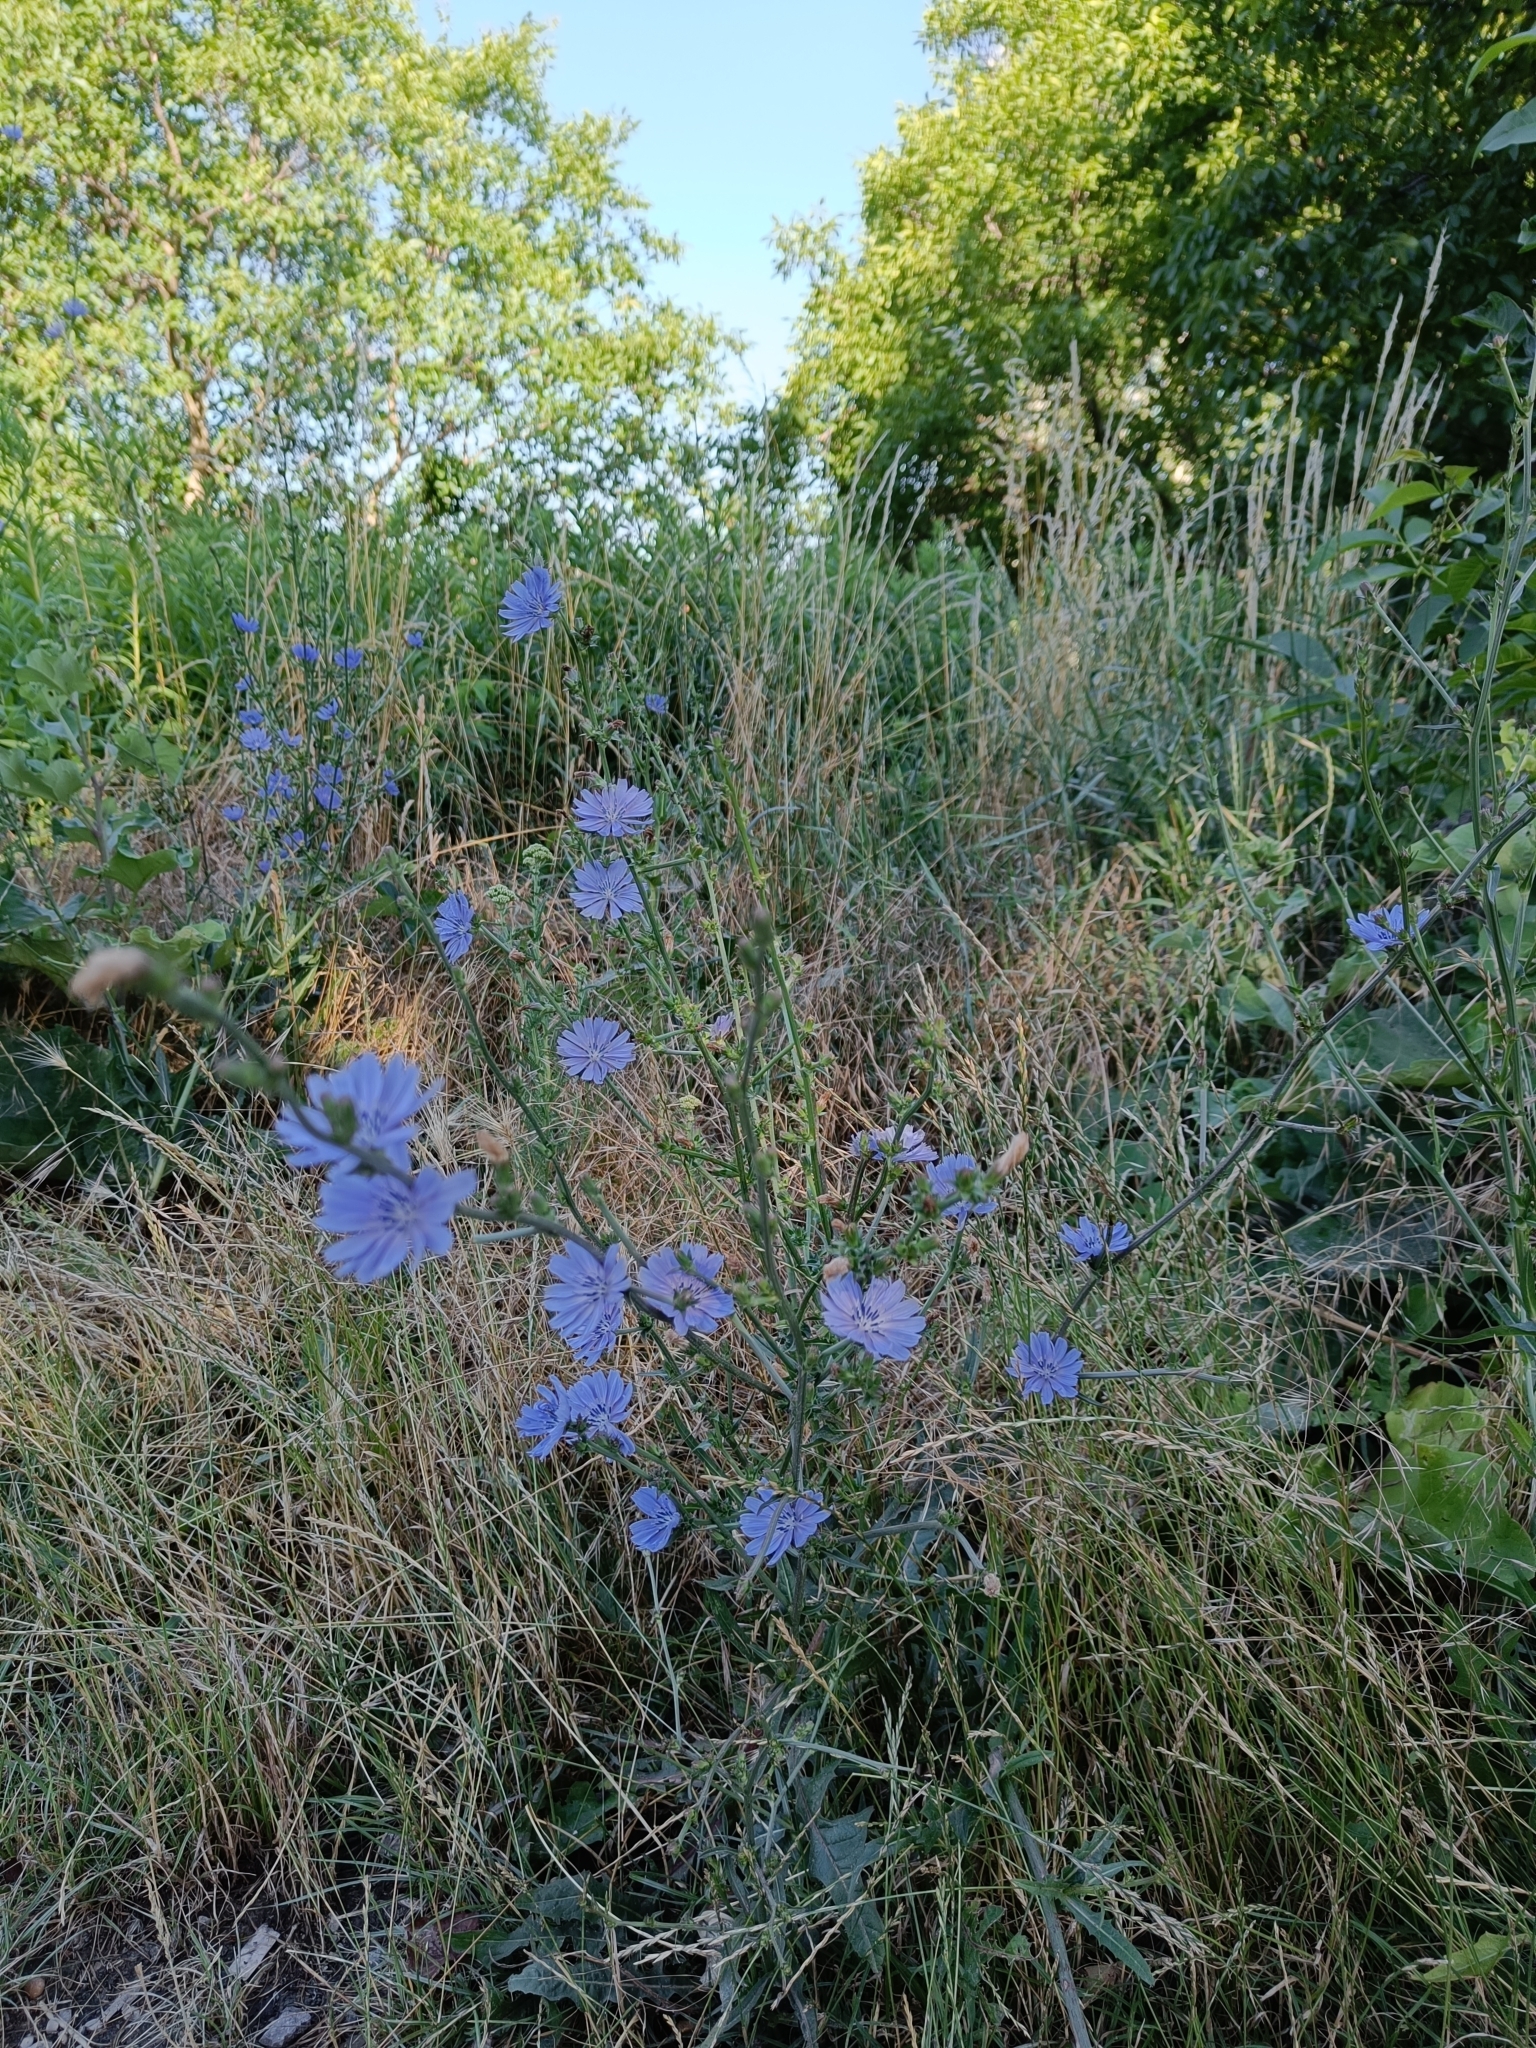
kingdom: Plantae
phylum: Tracheophyta
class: Magnoliopsida
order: Asterales
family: Asteraceae
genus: Cichorium
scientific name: Cichorium intybus
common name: Chicory
